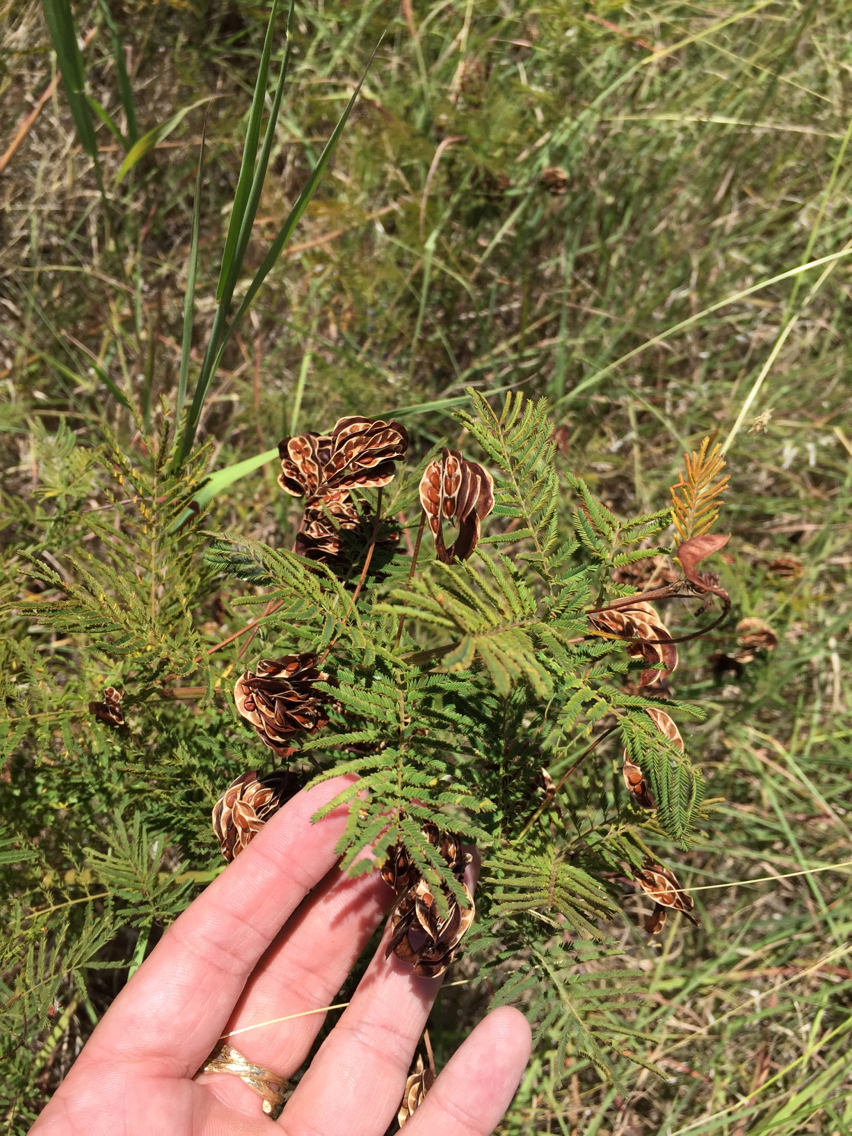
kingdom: Plantae
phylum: Tracheophyta
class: Magnoliopsida
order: Fabales
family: Fabaceae
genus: Desmanthus
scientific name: Desmanthus illinoensis
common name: Illinois bundle-flower
